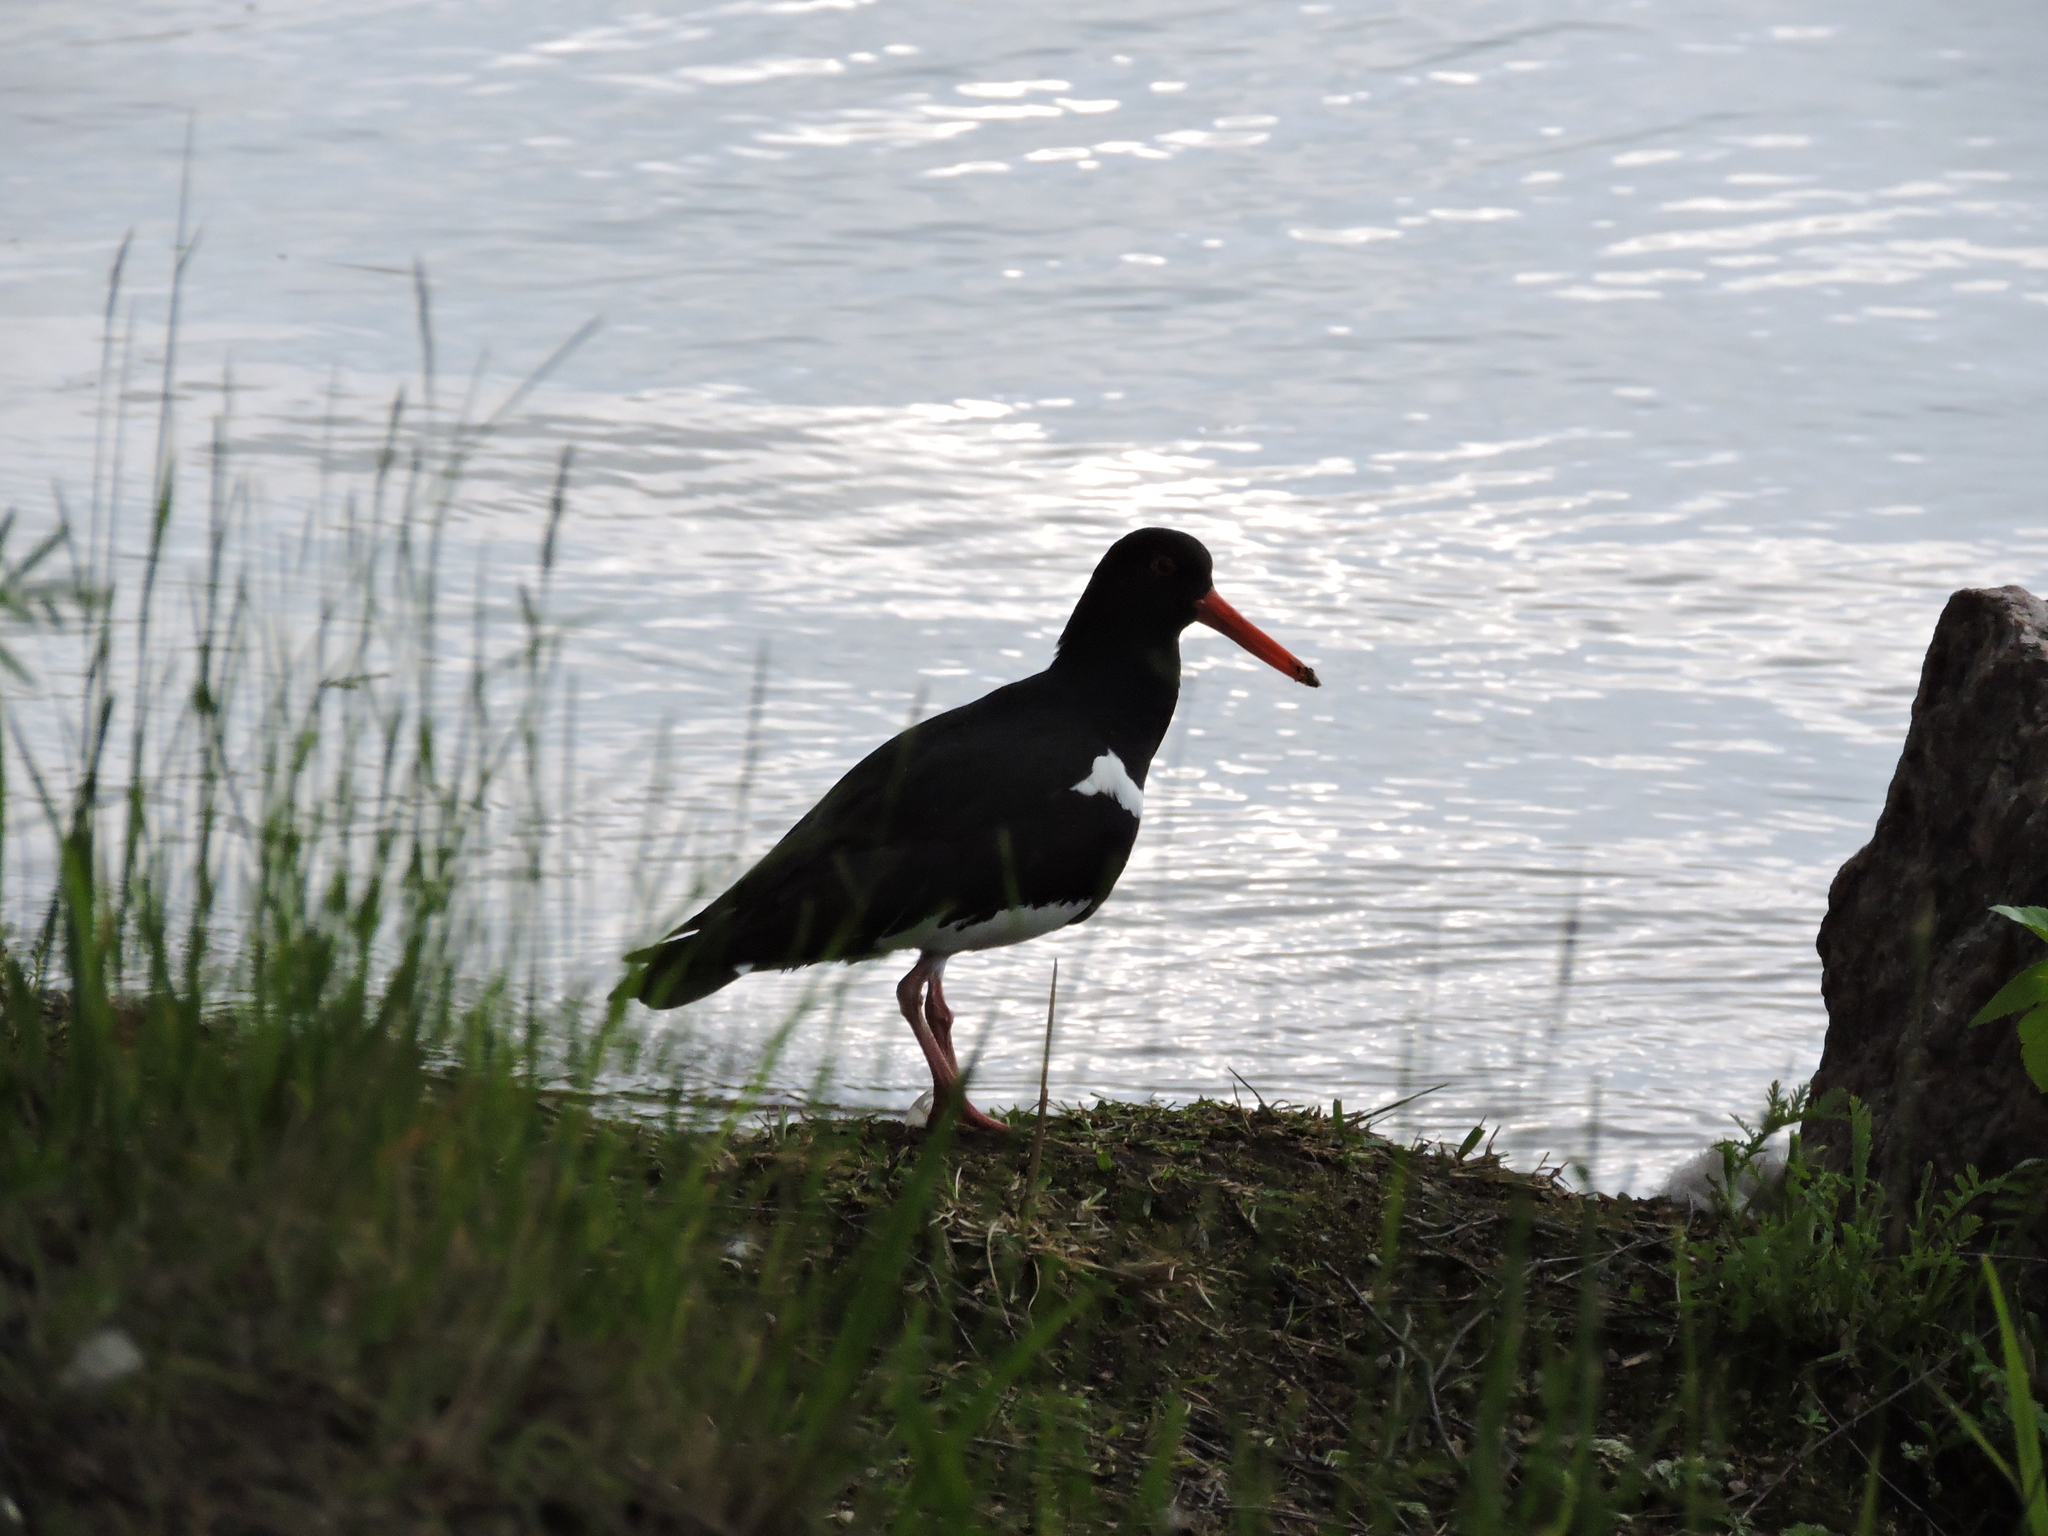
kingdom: Animalia
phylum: Chordata
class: Aves
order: Charadriiformes
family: Haematopodidae
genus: Haematopus
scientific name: Haematopus ostralegus
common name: Eurasian oystercatcher
